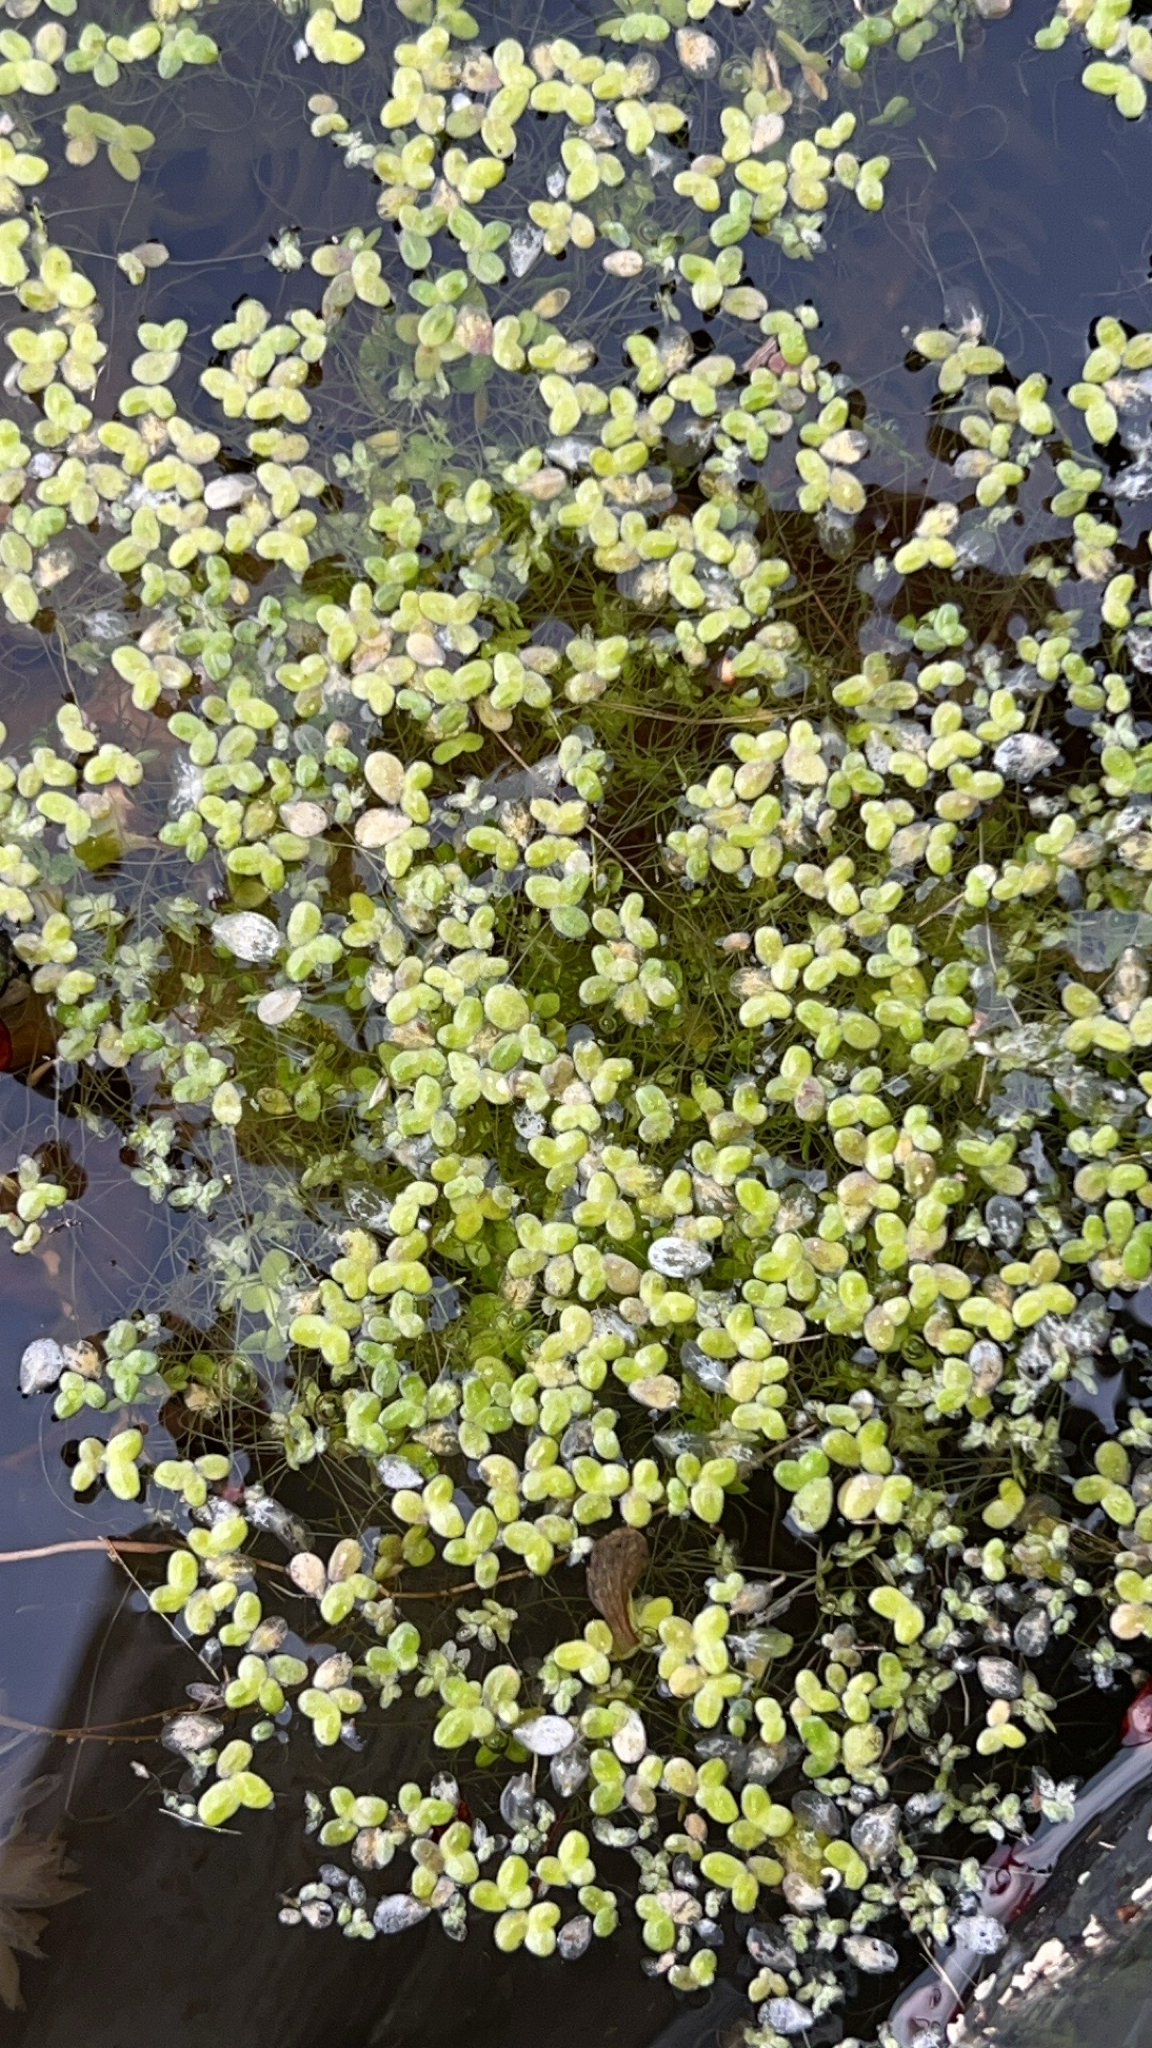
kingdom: Plantae
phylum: Tracheophyta
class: Liliopsida
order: Alismatales
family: Araceae
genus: Lemna
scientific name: Lemna minor
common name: Common duckweed
